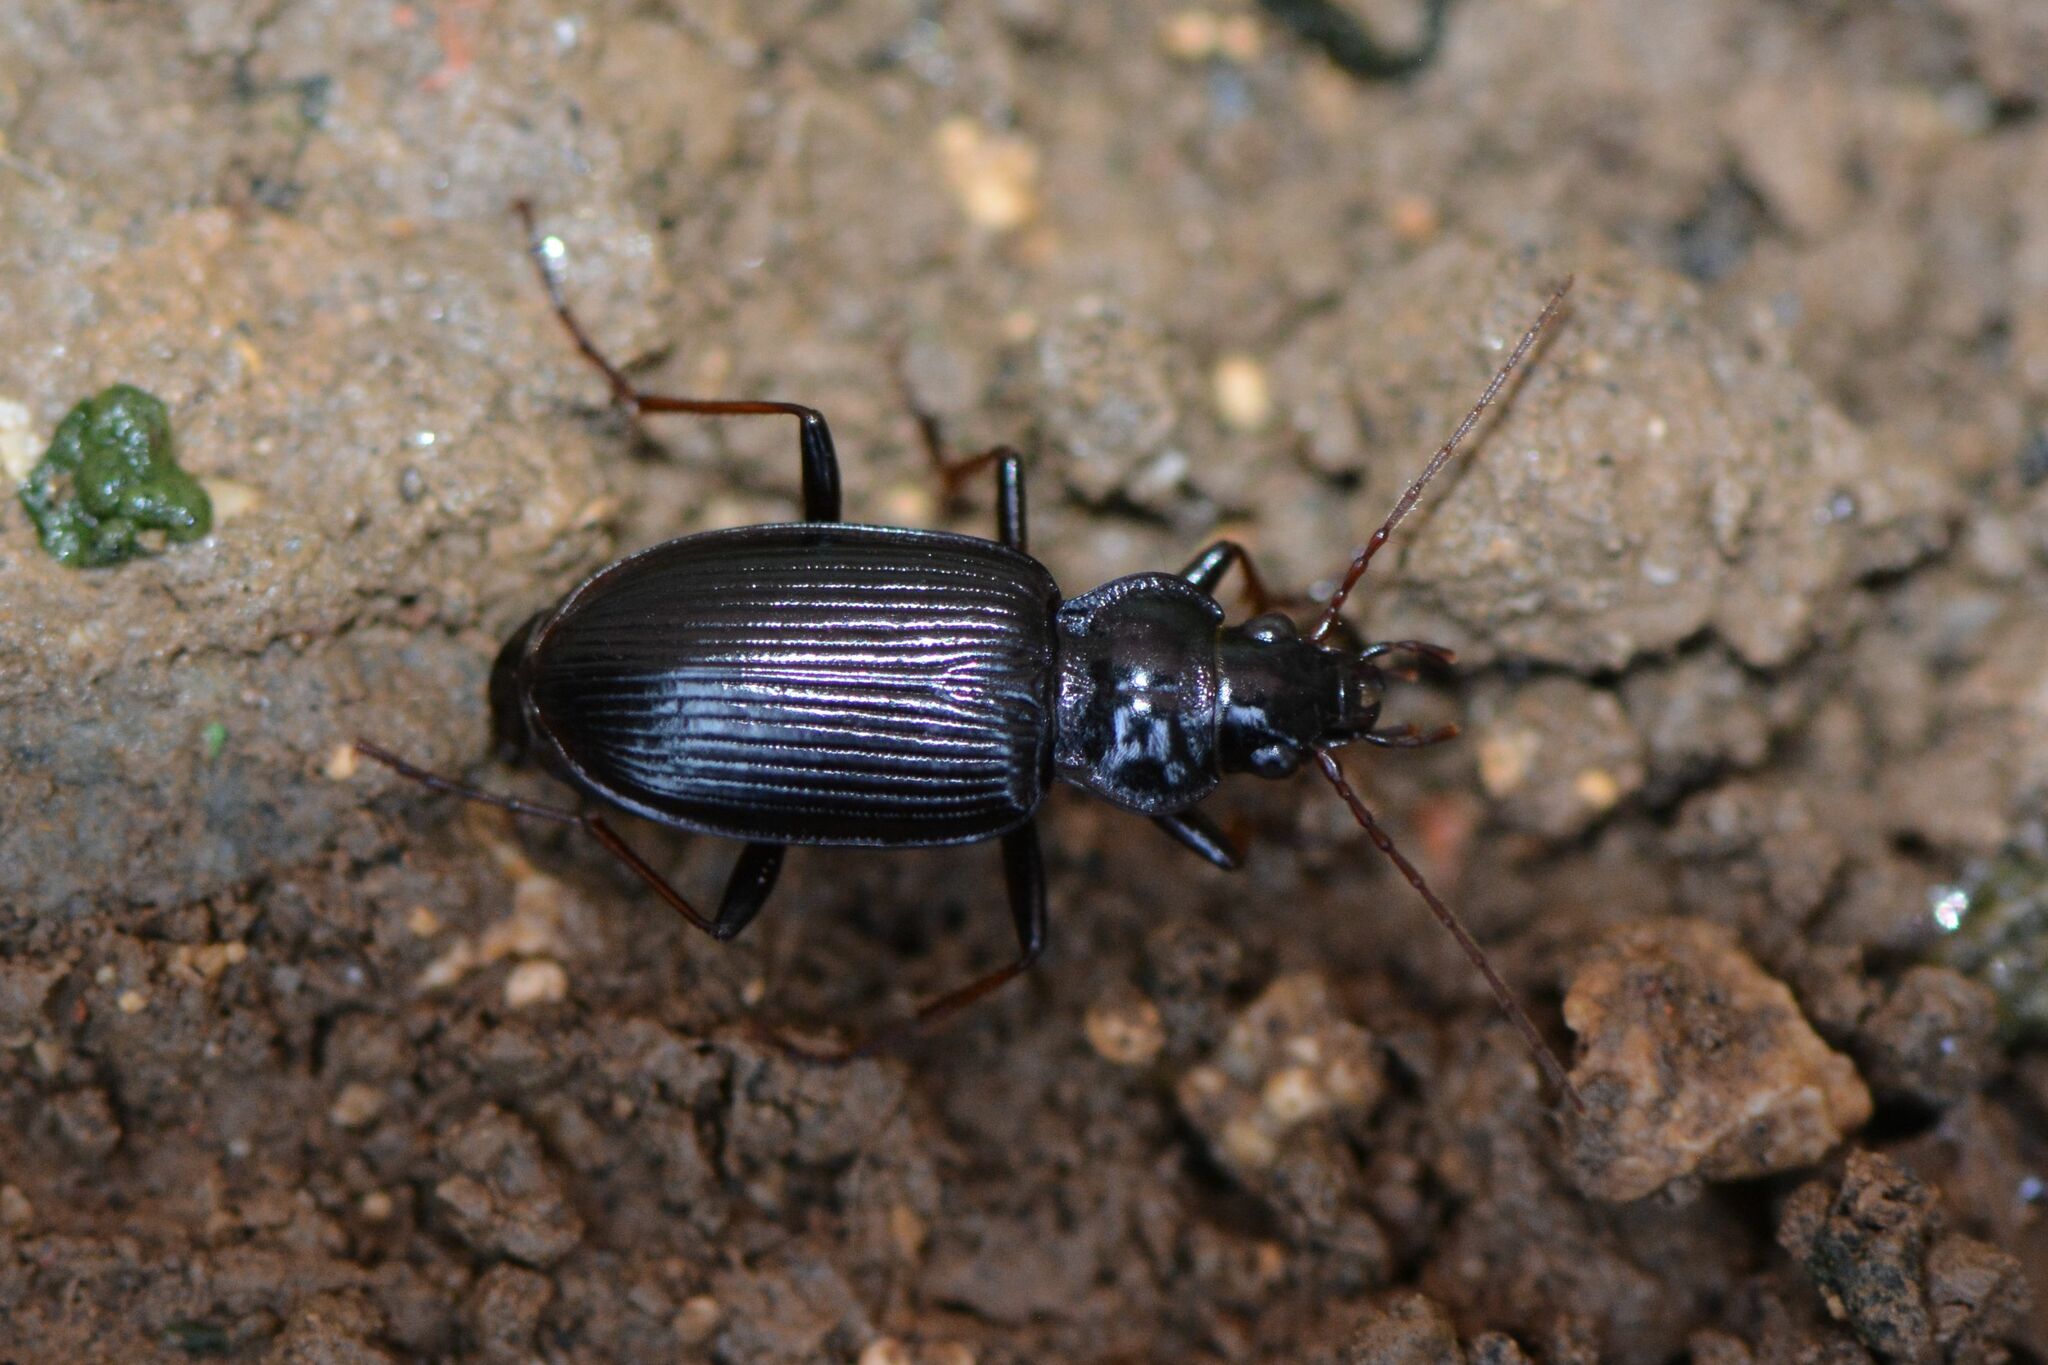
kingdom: Animalia
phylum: Arthropoda
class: Insecta
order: Coleoptera
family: Carabidae
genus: Nebria
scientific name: Nebria salina
